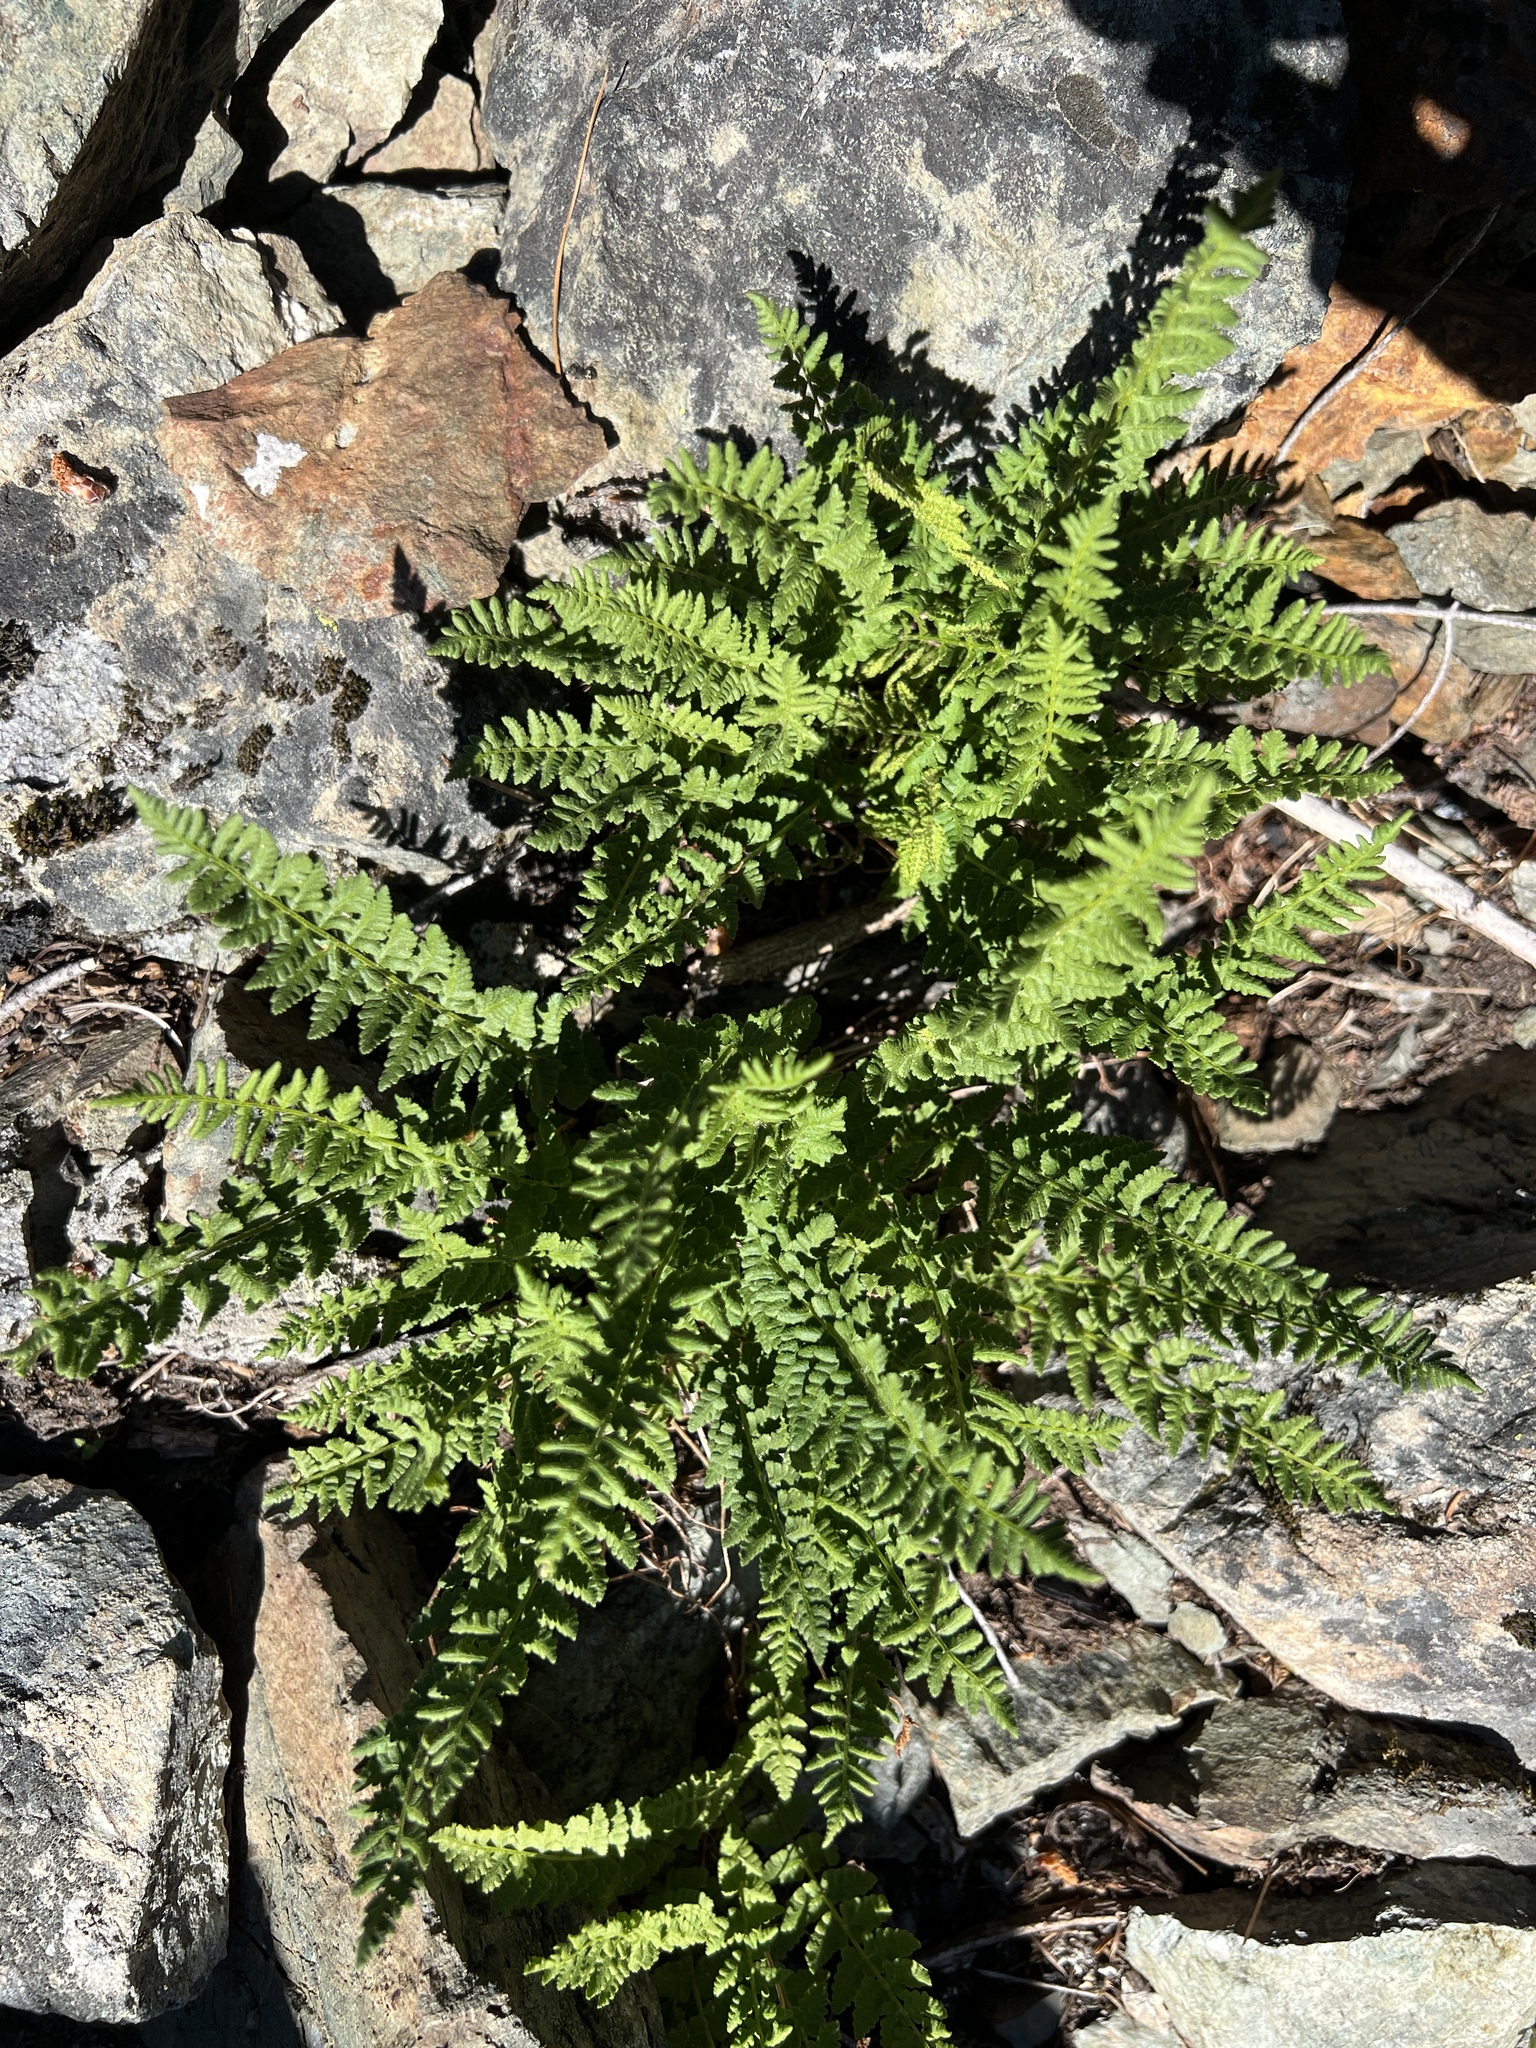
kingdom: Plantae
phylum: Tracheophyta
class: Polypodiopsida
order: Polypodiales
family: Woodsiaceae
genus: Physematium
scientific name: Physematium scopulinum
